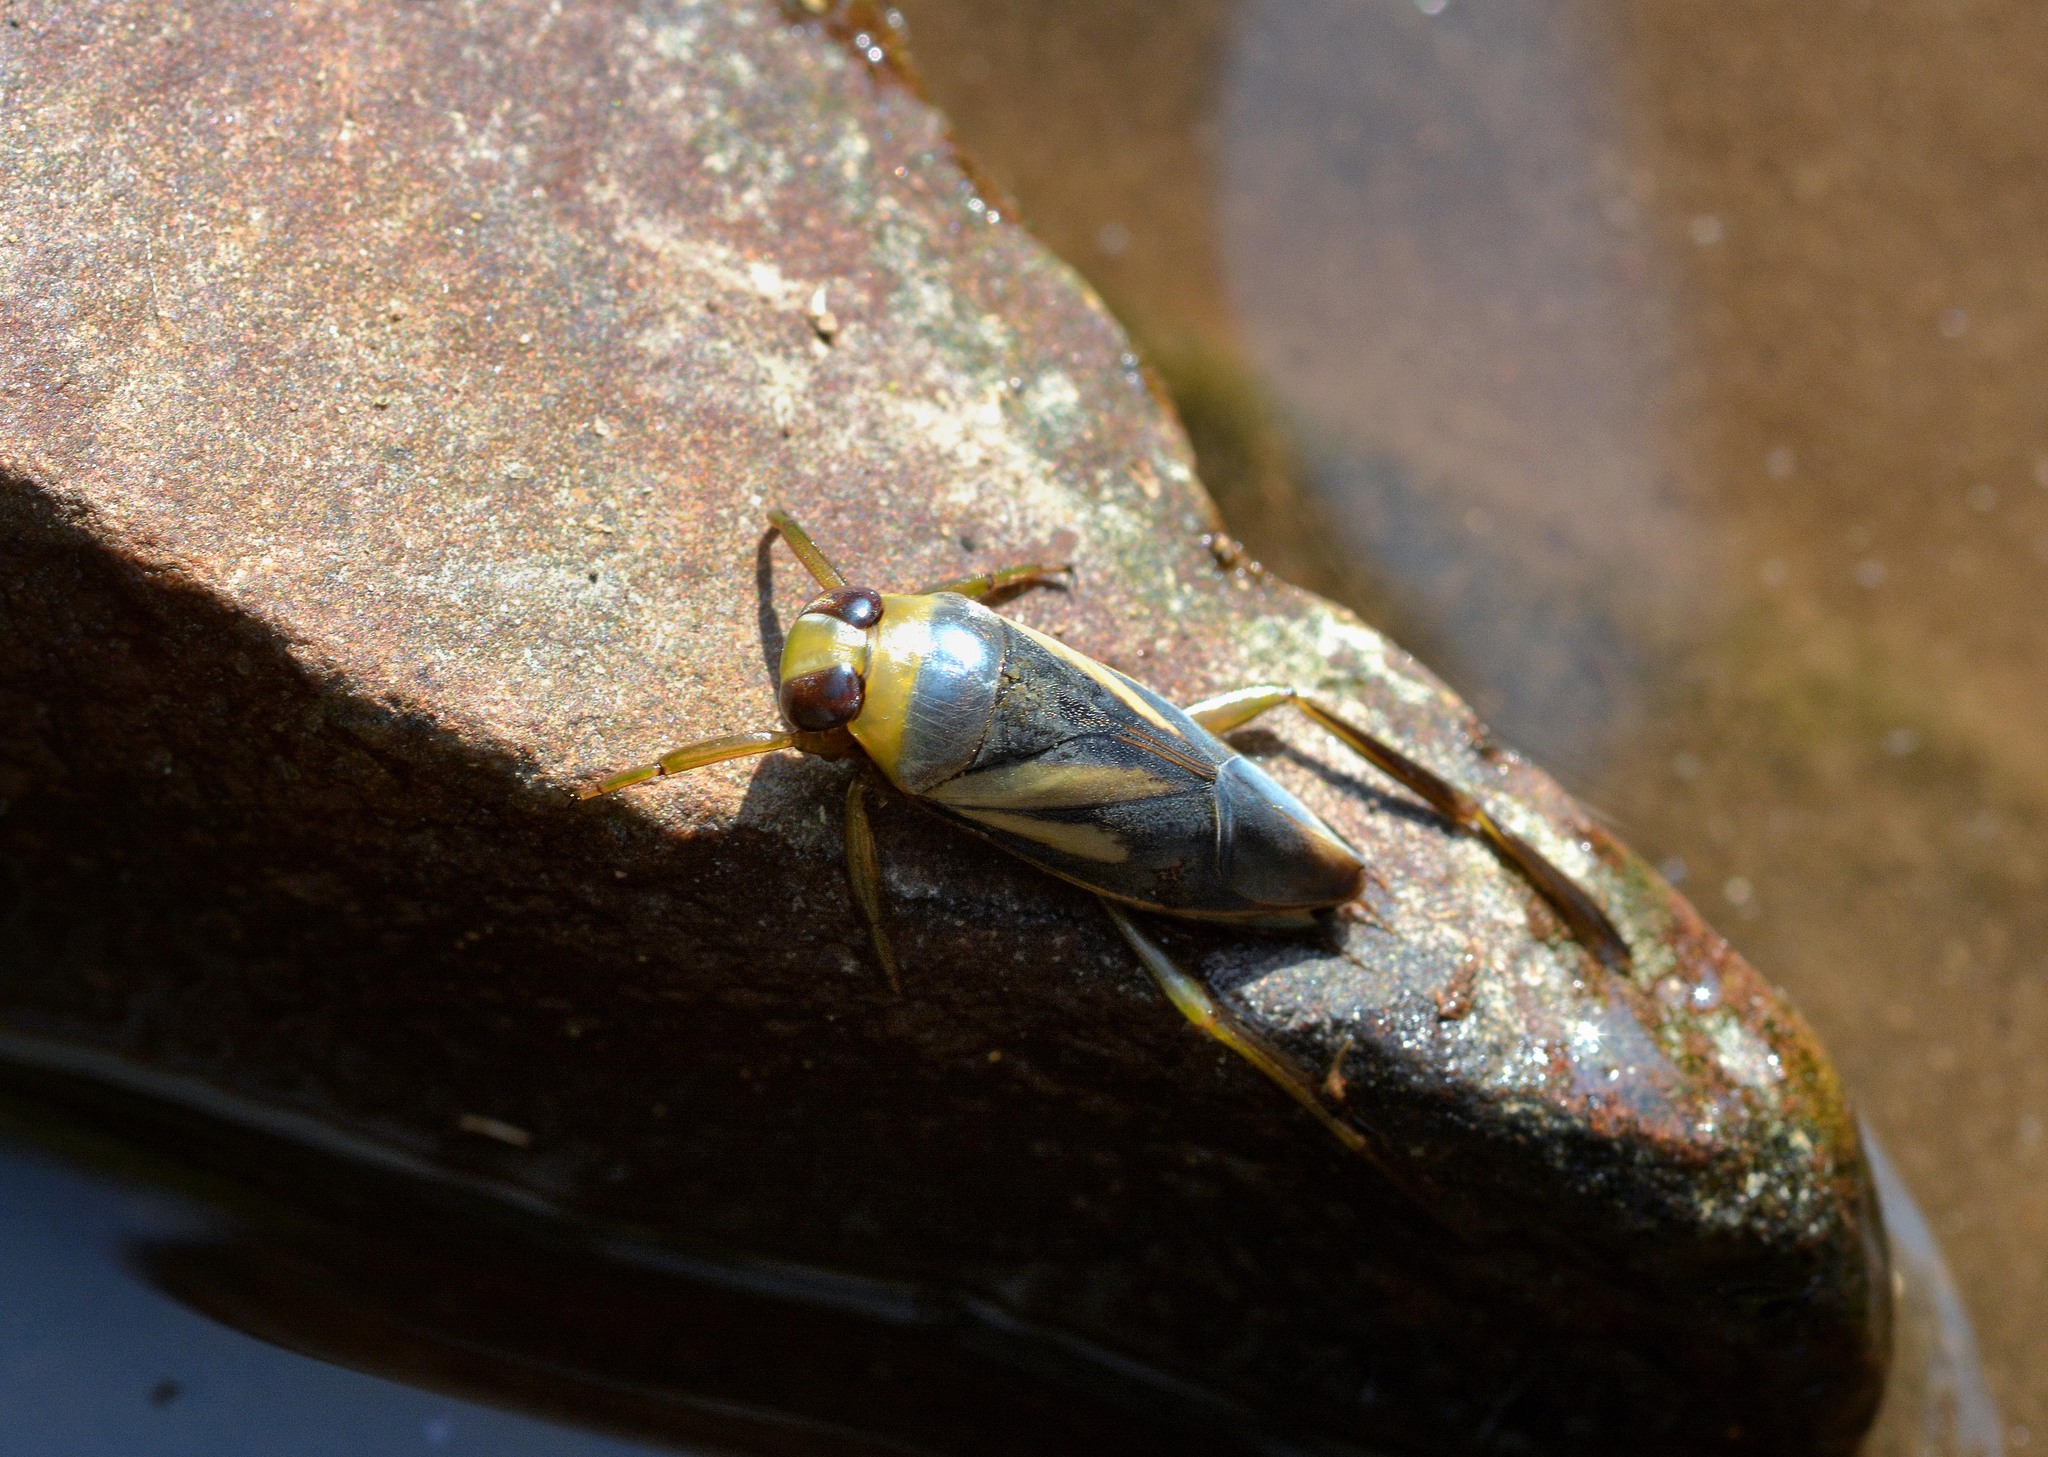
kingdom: Animalia
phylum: Arthropoda
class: Insecta
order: Hemiptera
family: Notonectidae
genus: Notonecta
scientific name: Notonecta obliqua
